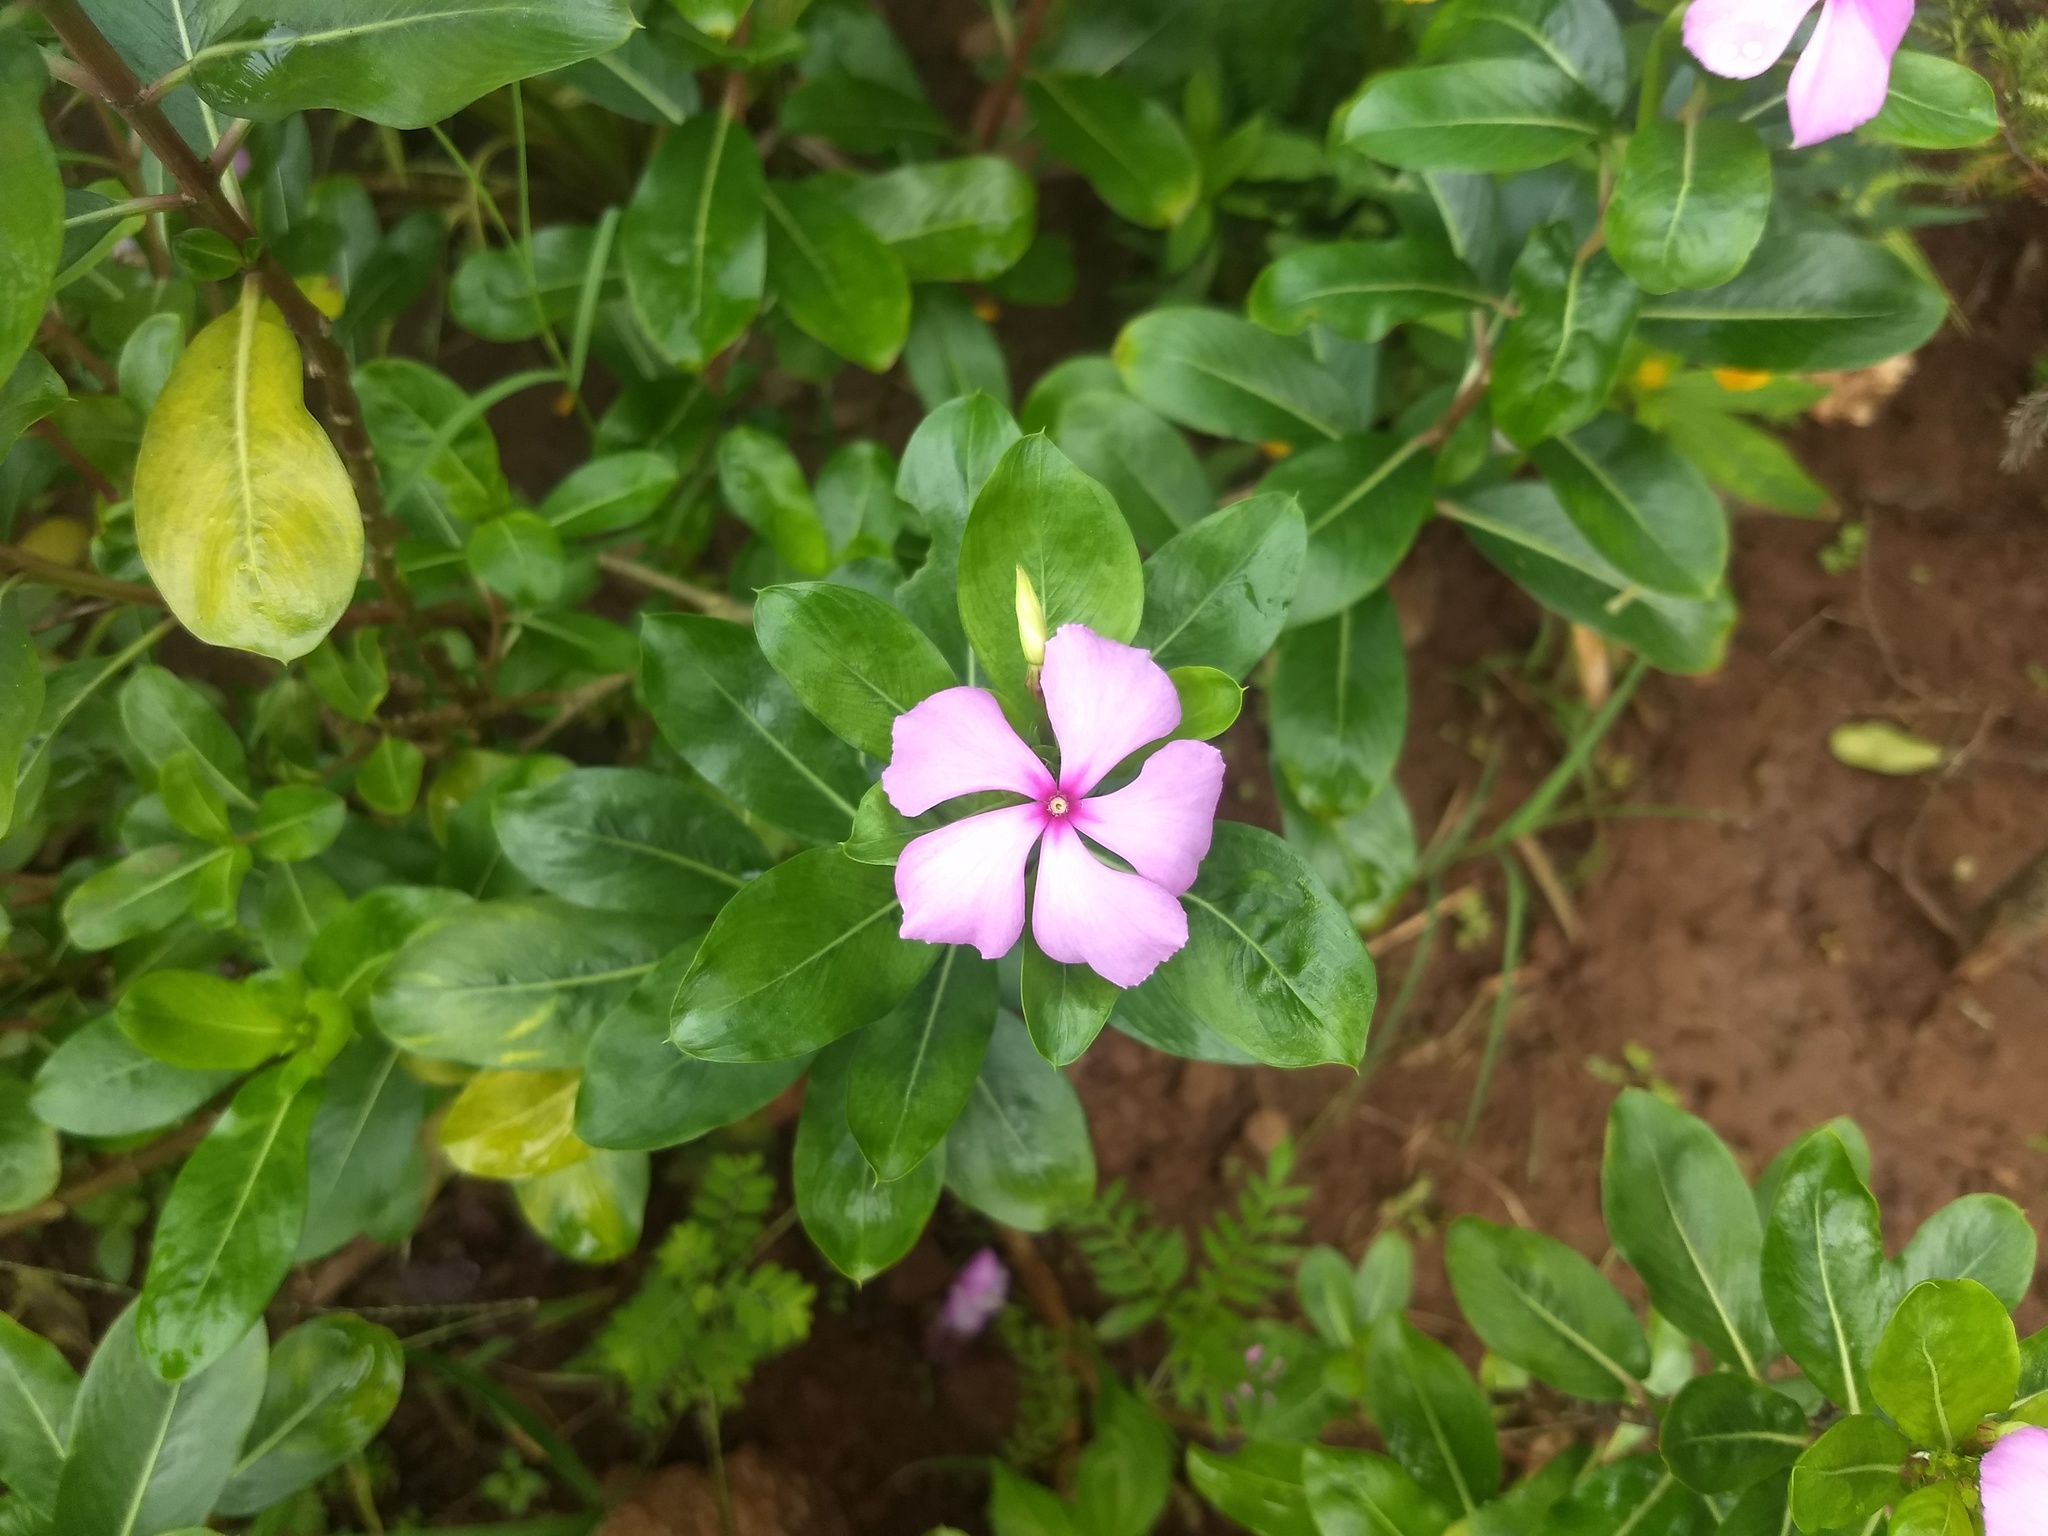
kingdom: Plantae
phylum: Tracheophyta
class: Magnoliopsida
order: Gentianales
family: Apocynaceae
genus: Catharanthus
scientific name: Catharanthus roseus
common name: Madagascar periwinkle
